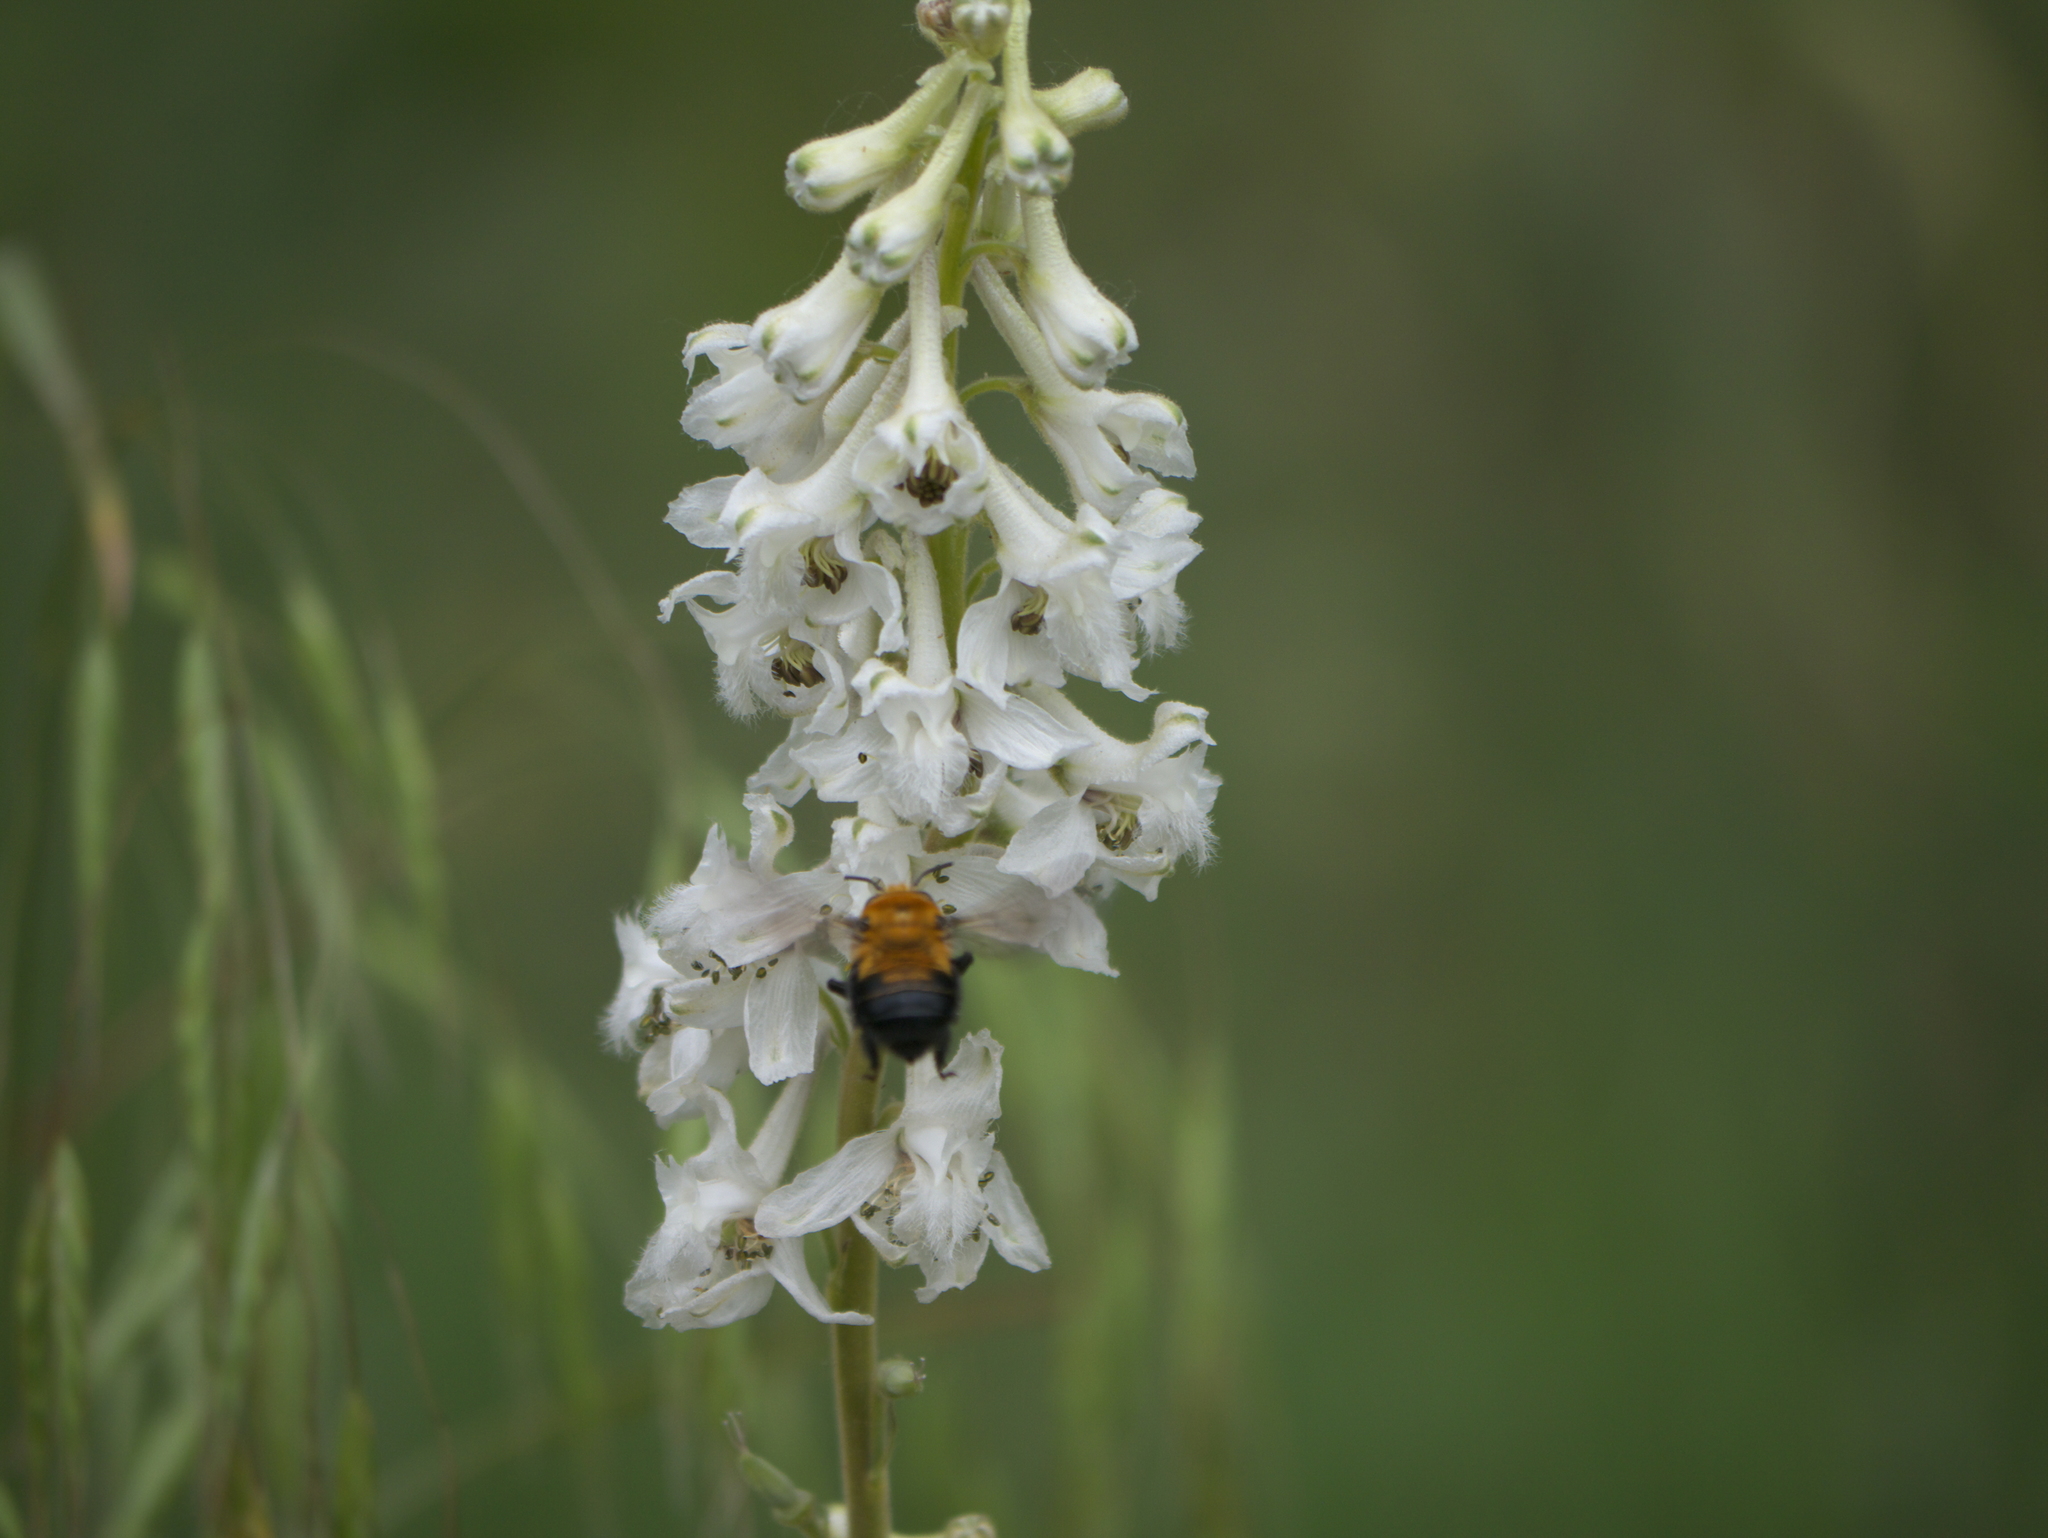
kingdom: Plantae
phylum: Tracheophyta
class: Magnoliopsida
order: Ranunculales
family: Ranunculaceae
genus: Delphinium
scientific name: Delphinium carolinianum
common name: Carolina larkspur
